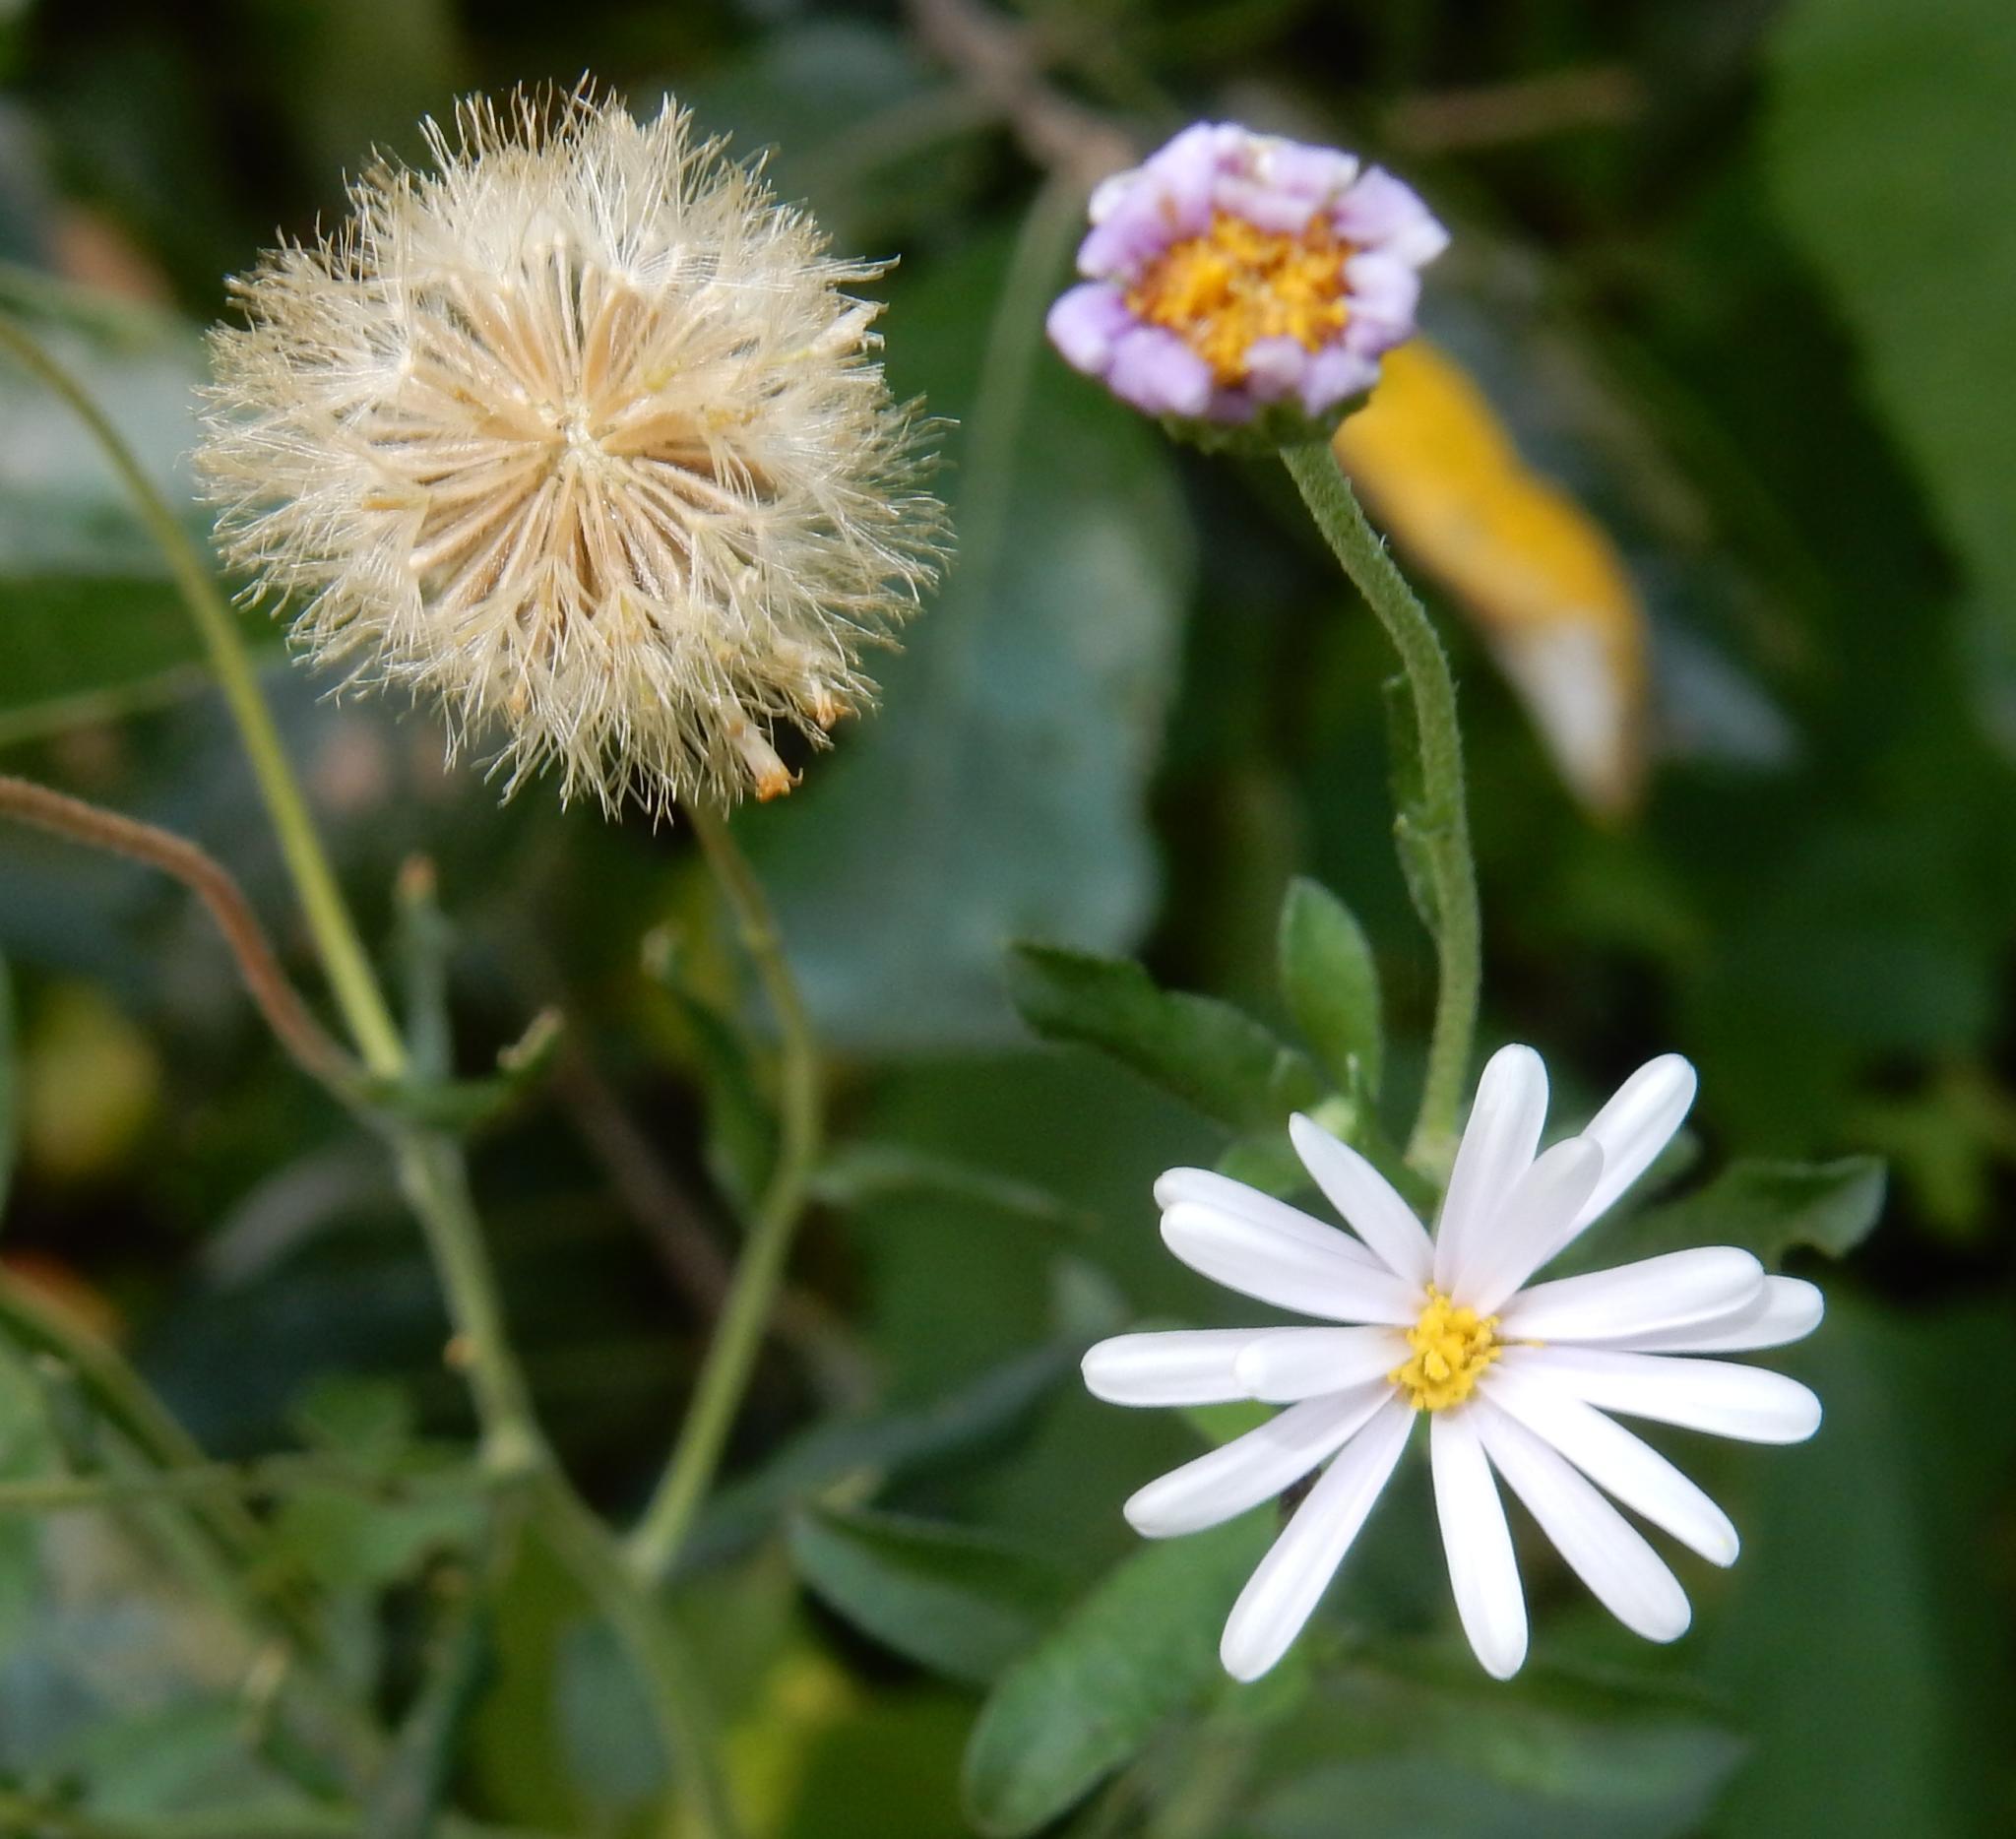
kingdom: Plantae
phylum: Tracheophyta
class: Magnoliopsida
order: Asterales
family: Asteraceae
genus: Felicia
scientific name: Felicia erigeroides
